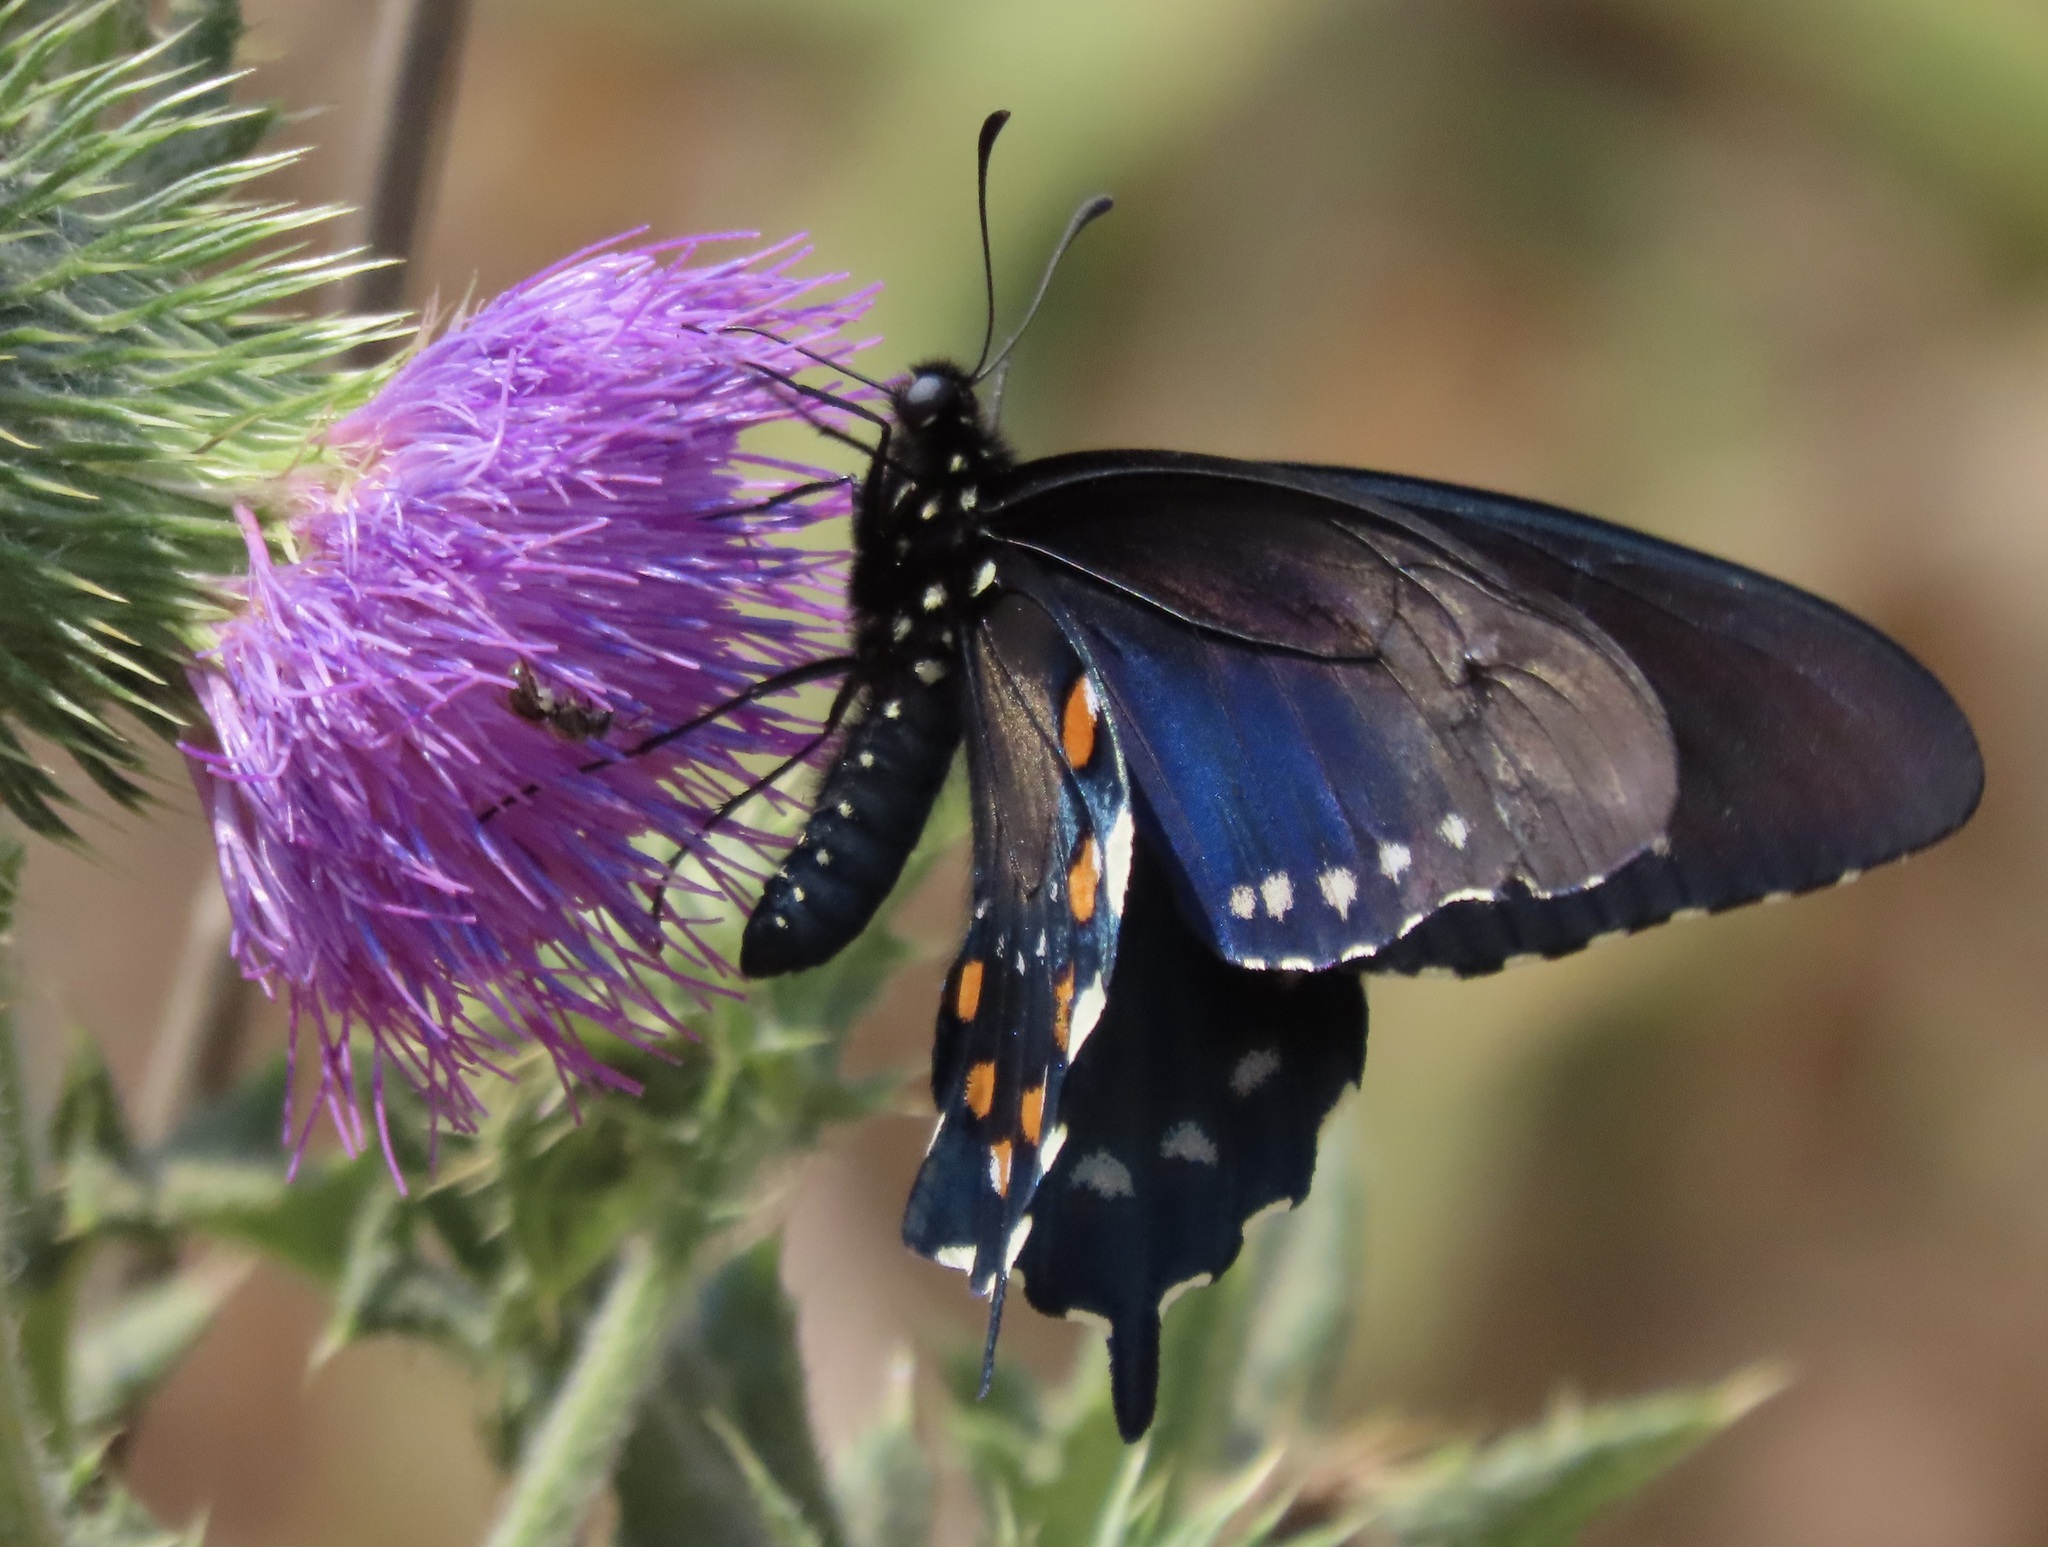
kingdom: Animalia
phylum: Arthropoda
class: Insecta
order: Lepidoptera
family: Papilionidae
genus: Battus
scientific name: Battus philenor
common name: Pipevine swallowtail
